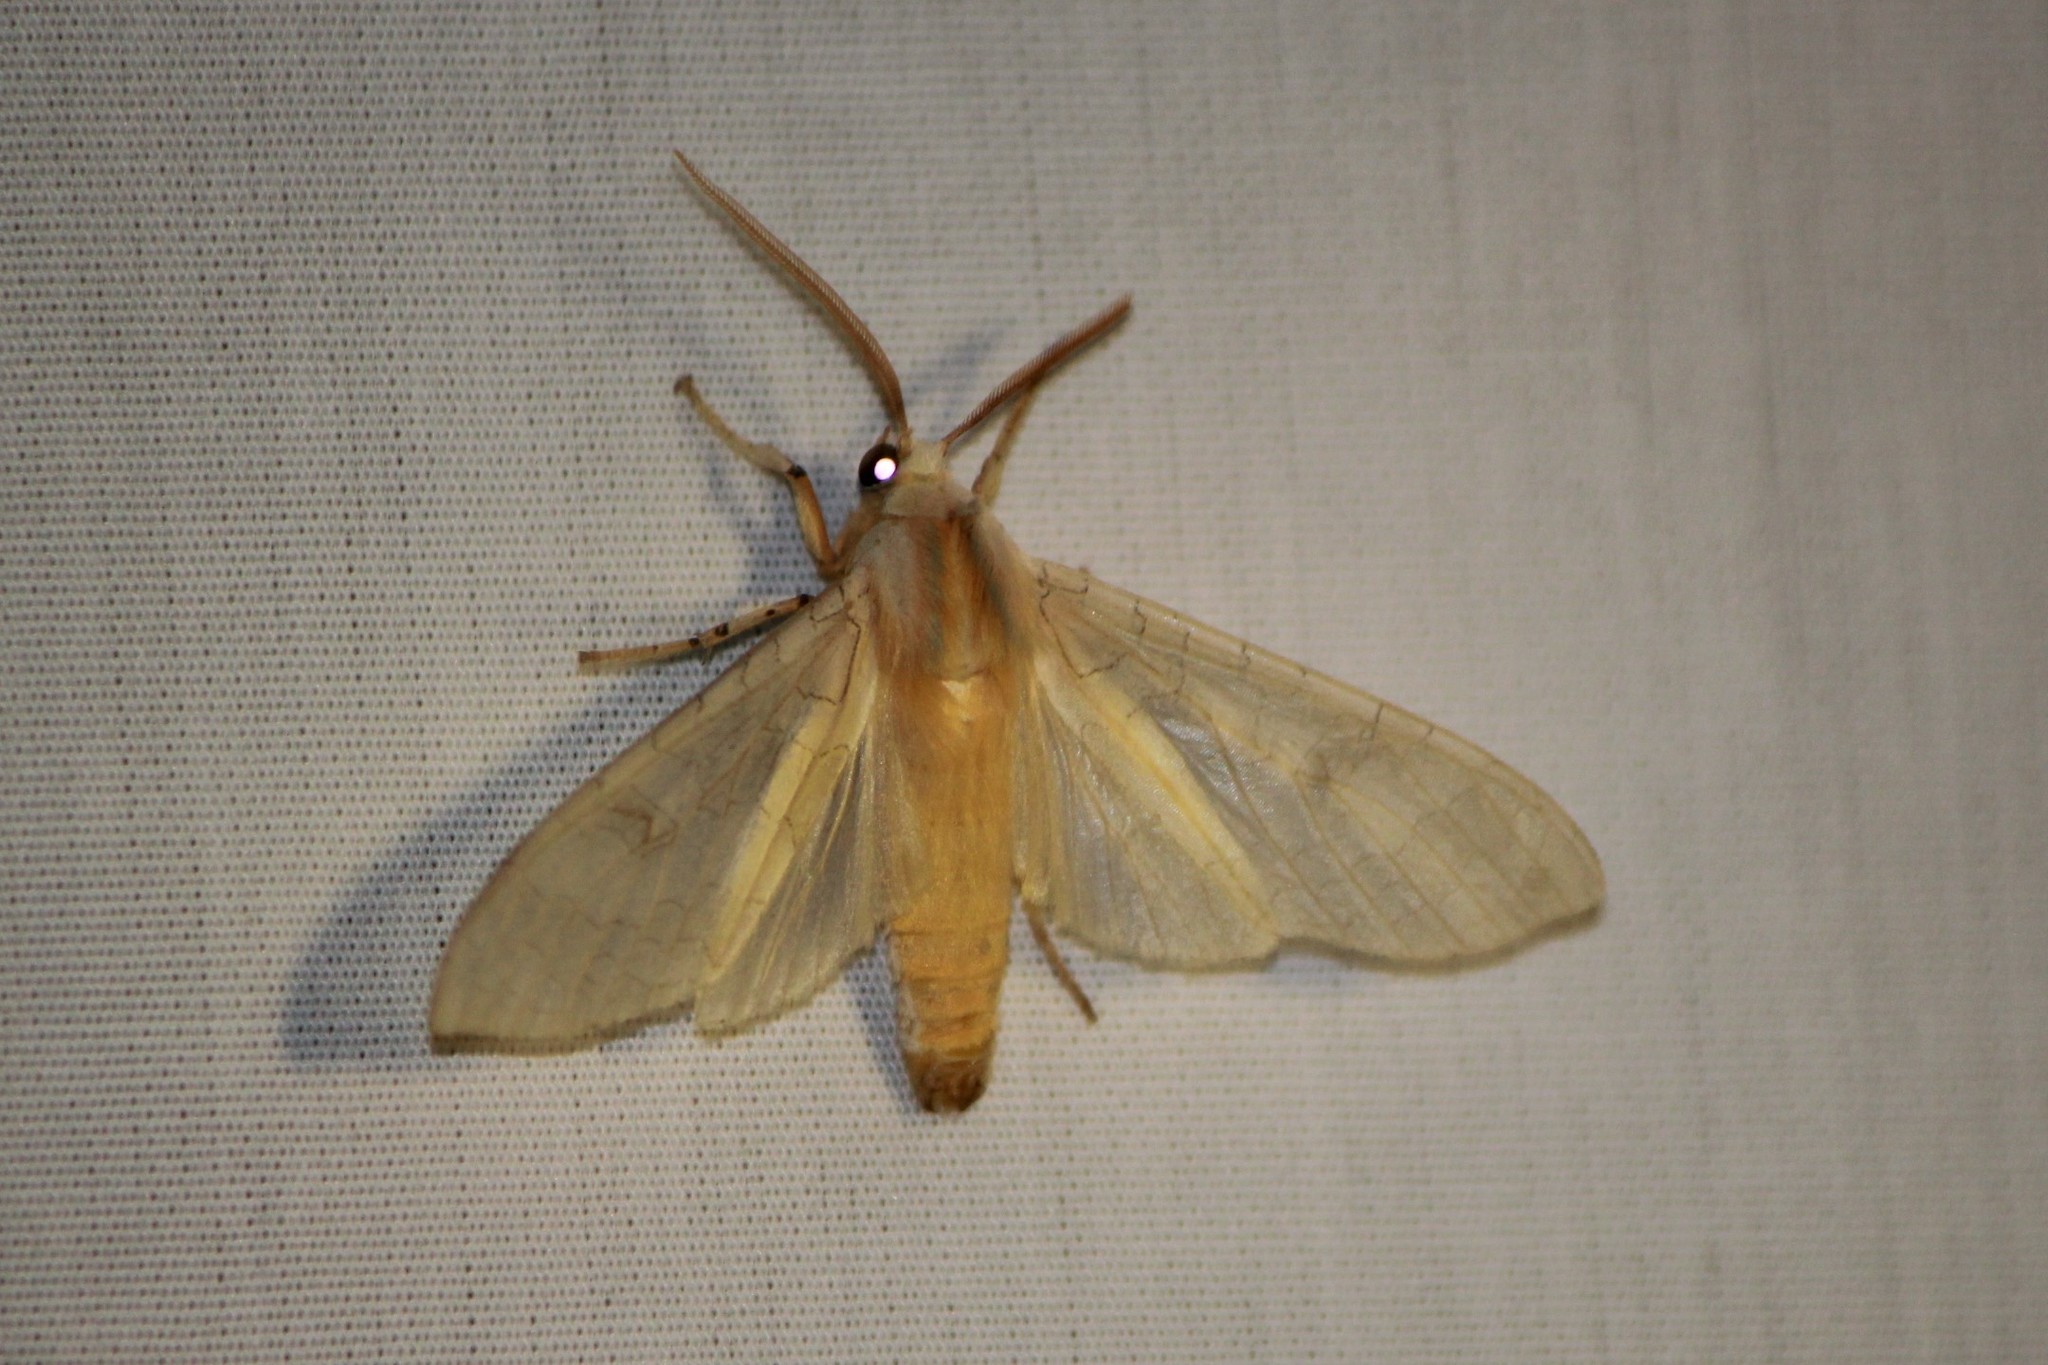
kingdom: Animalia
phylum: Arthropoda
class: Insecta
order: Lepidoptera
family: Erebidae
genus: Halysidota
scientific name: Halysidota tessellaris
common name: Banded tussock moth
